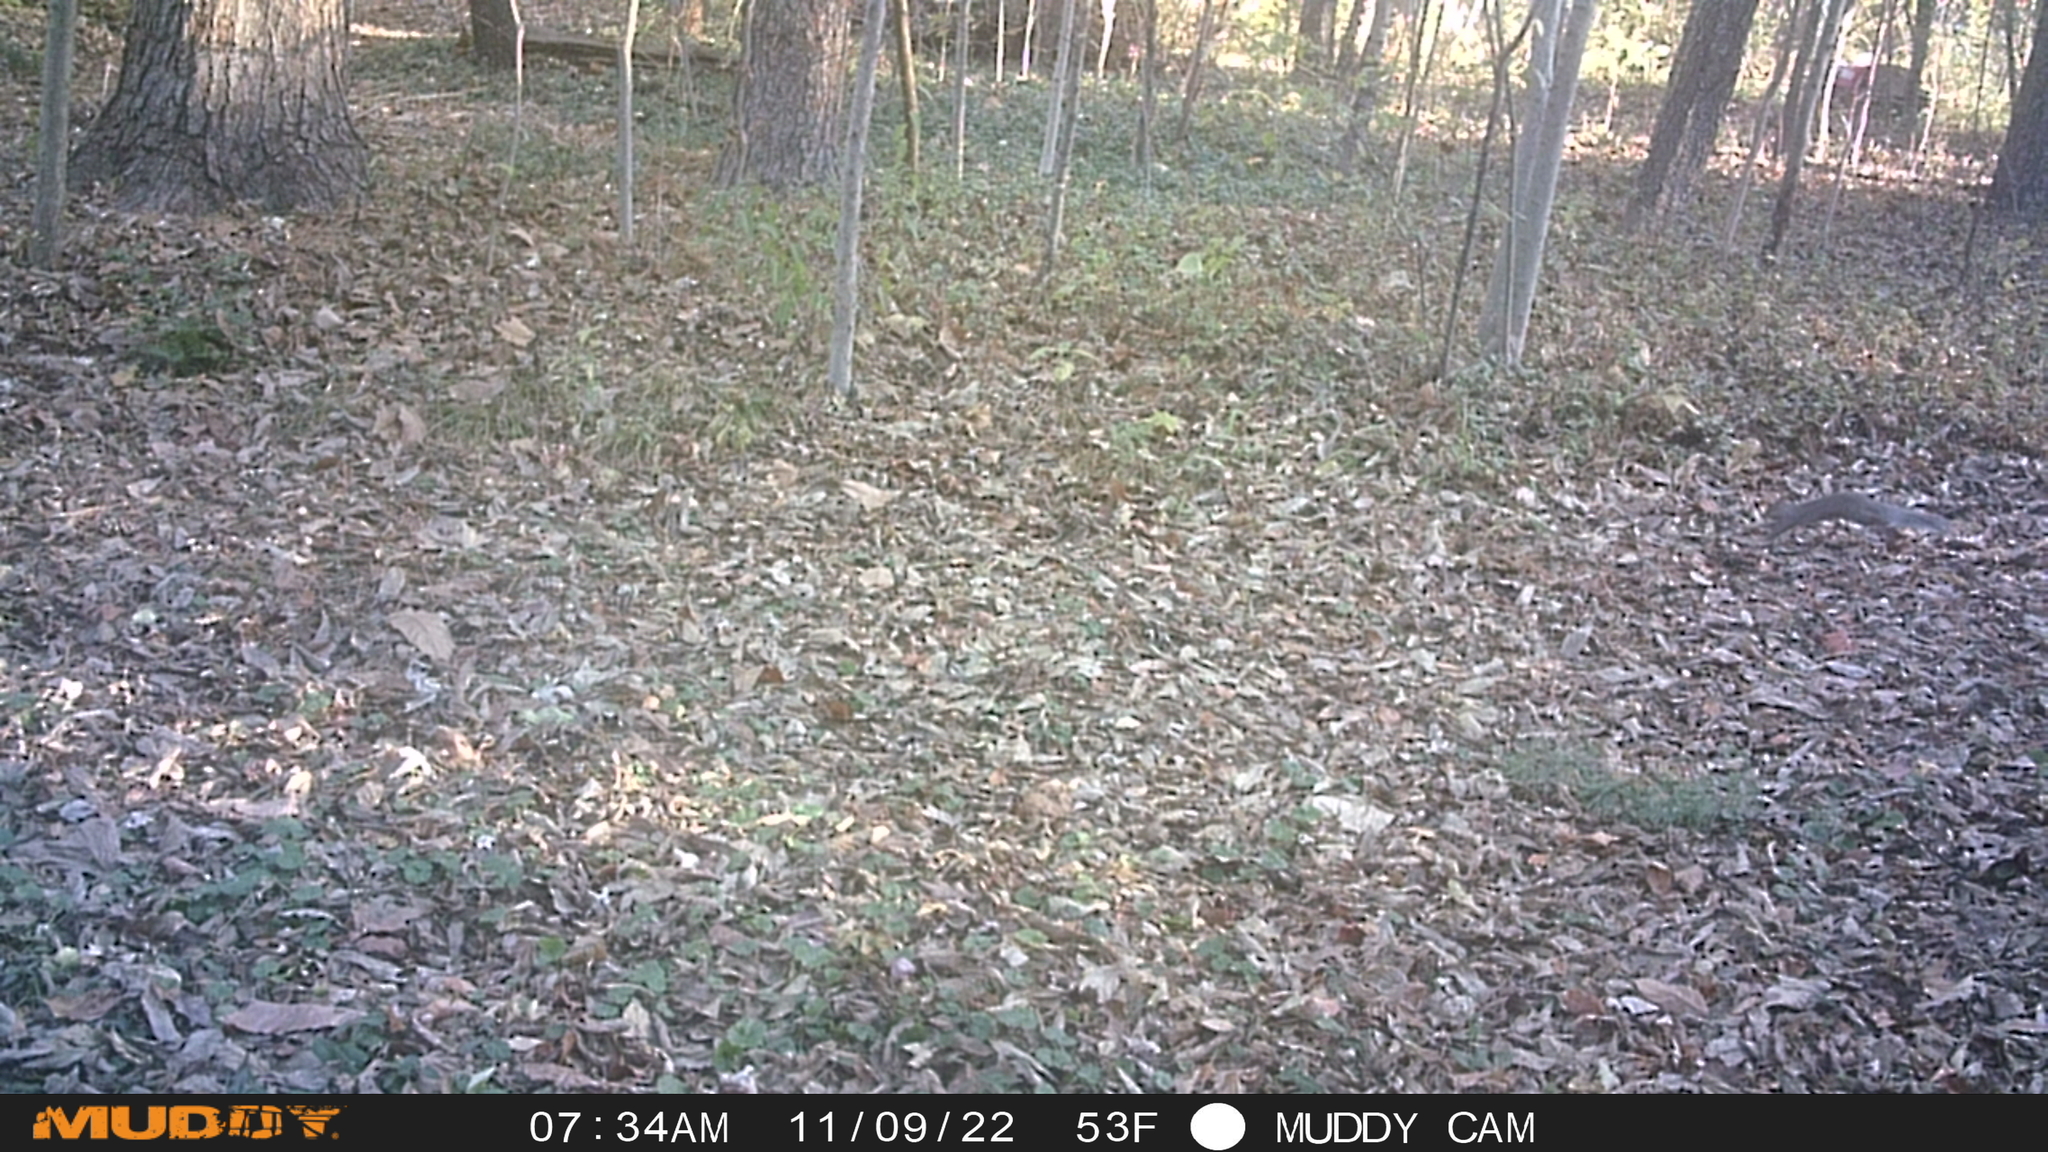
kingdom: Animalia
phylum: Chordata
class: Mammalia
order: Rodentia
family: Sciuridae
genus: Sciurus
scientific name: Sciurus carolinensis
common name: Eastern gray squirrel
